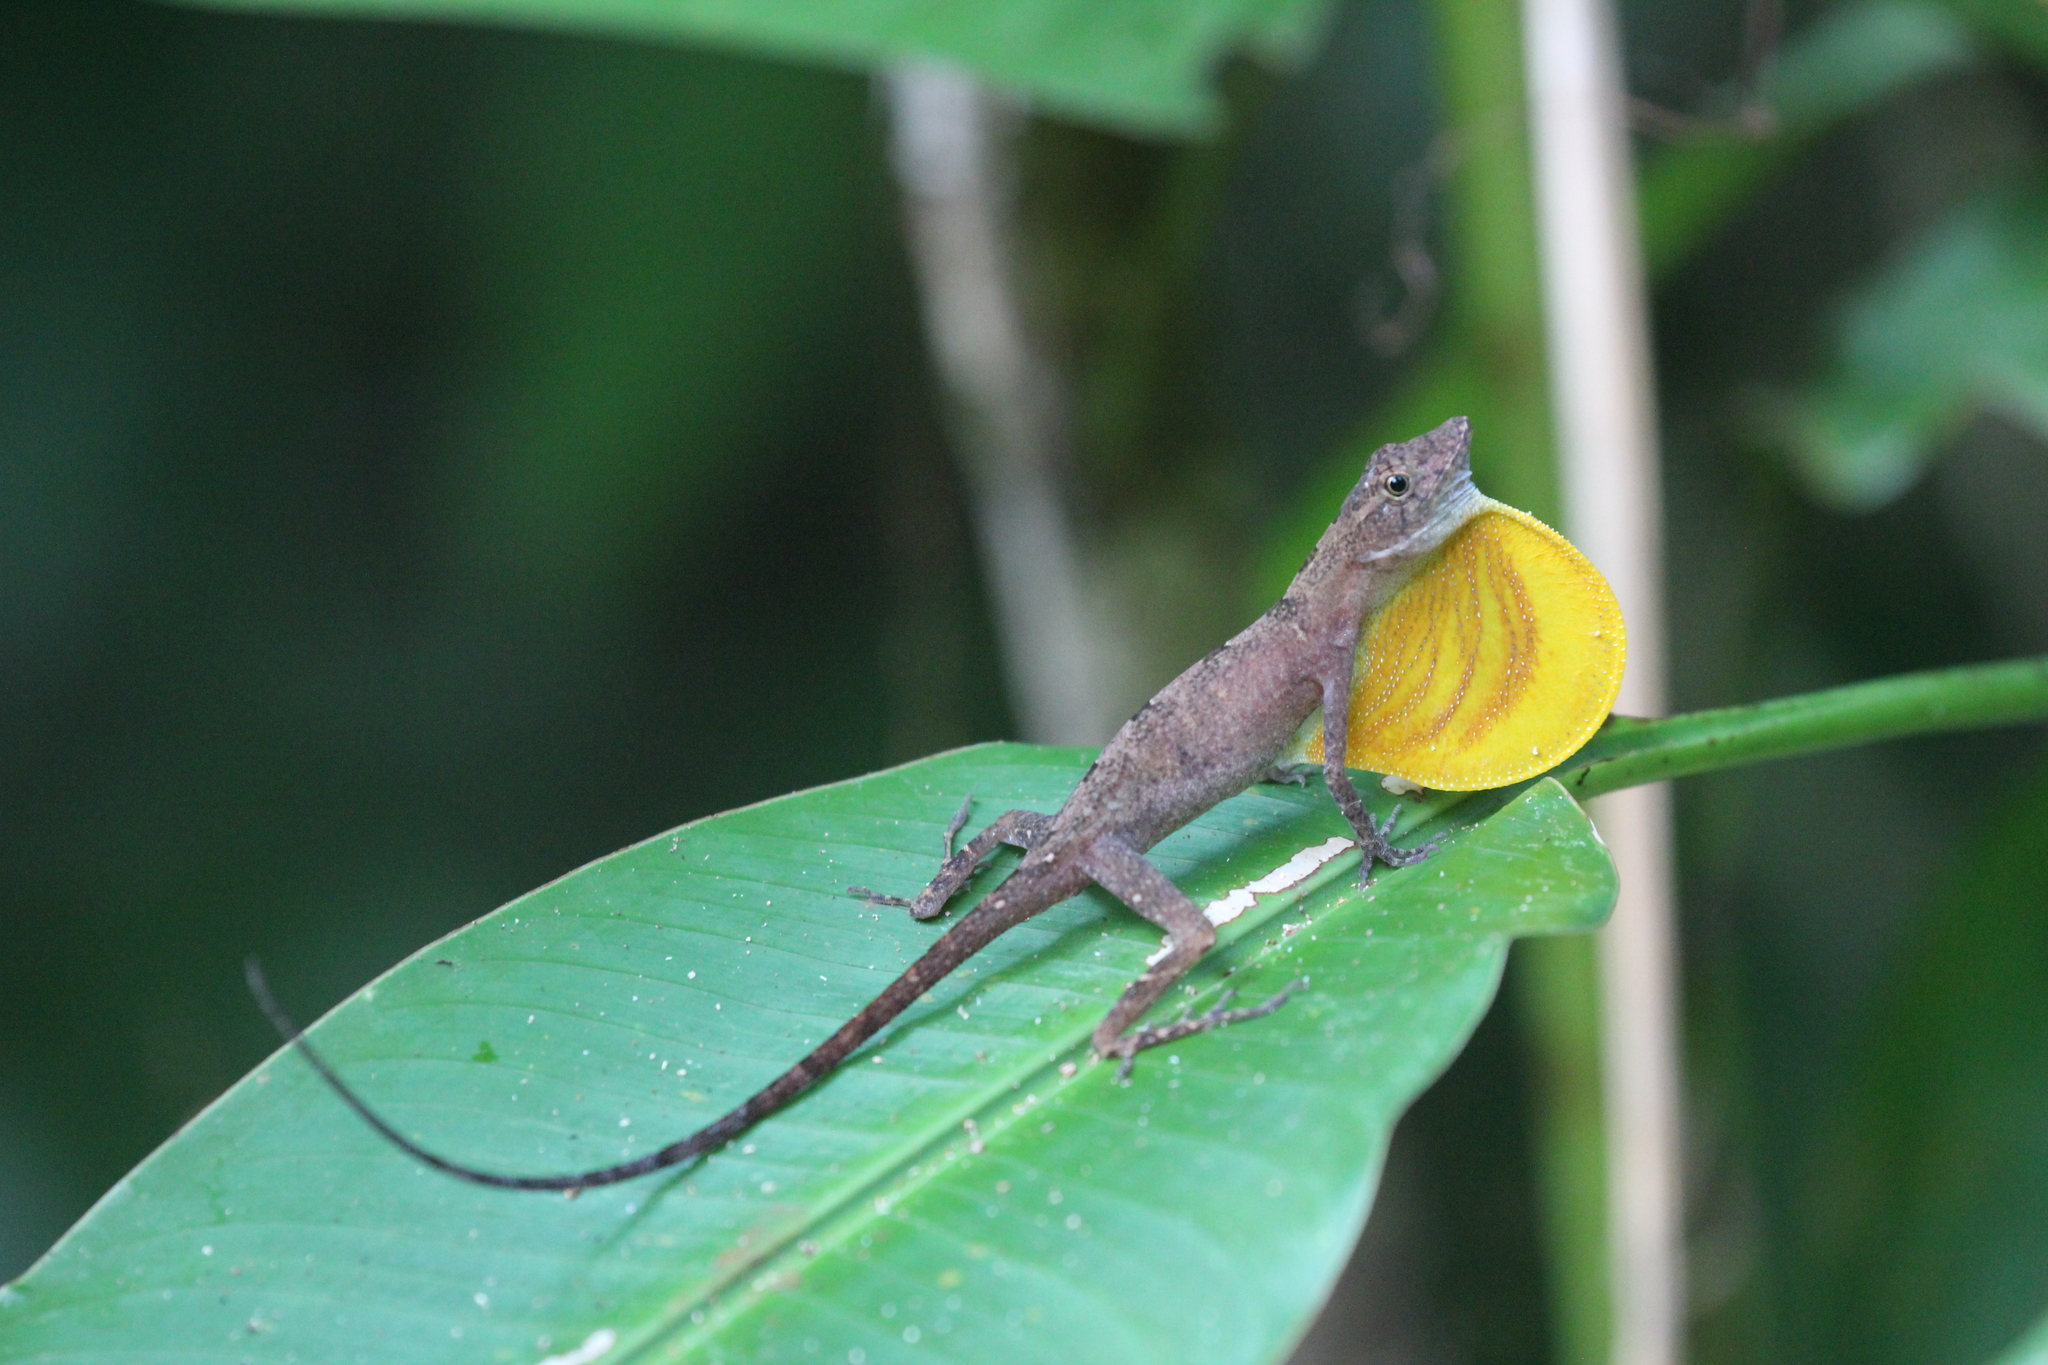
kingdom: Animalia
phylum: Chordata
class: Squamata
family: Dactyloidae
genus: Anolis
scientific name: Anolis osa
